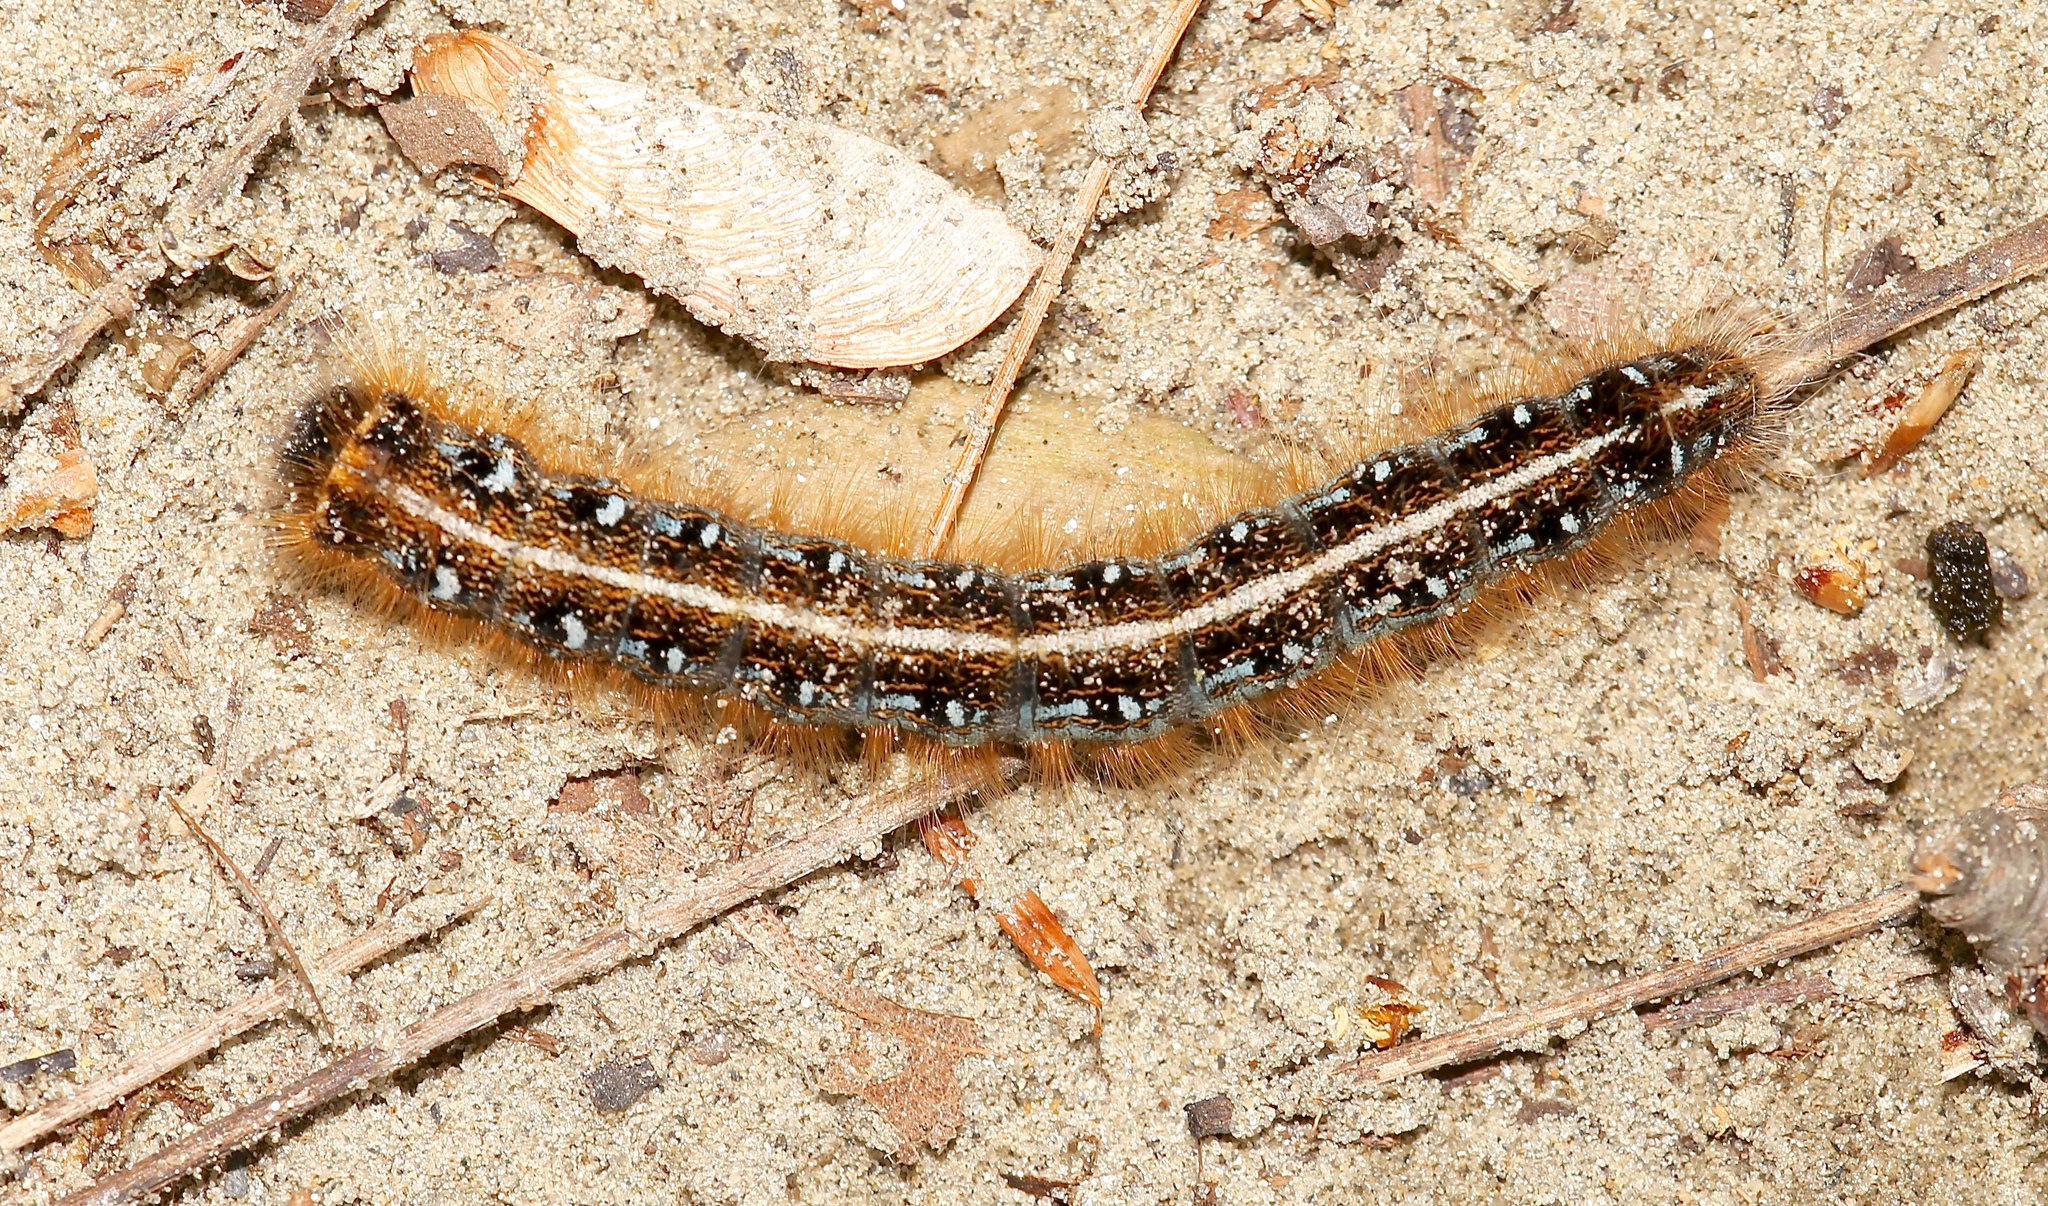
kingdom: Animalia
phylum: Arthropoda
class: Insecta
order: Lepidoptera
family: Lasiocampidae
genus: Malacosoma
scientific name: Malacosoma americana
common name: Eastern tent caterpillar moth
